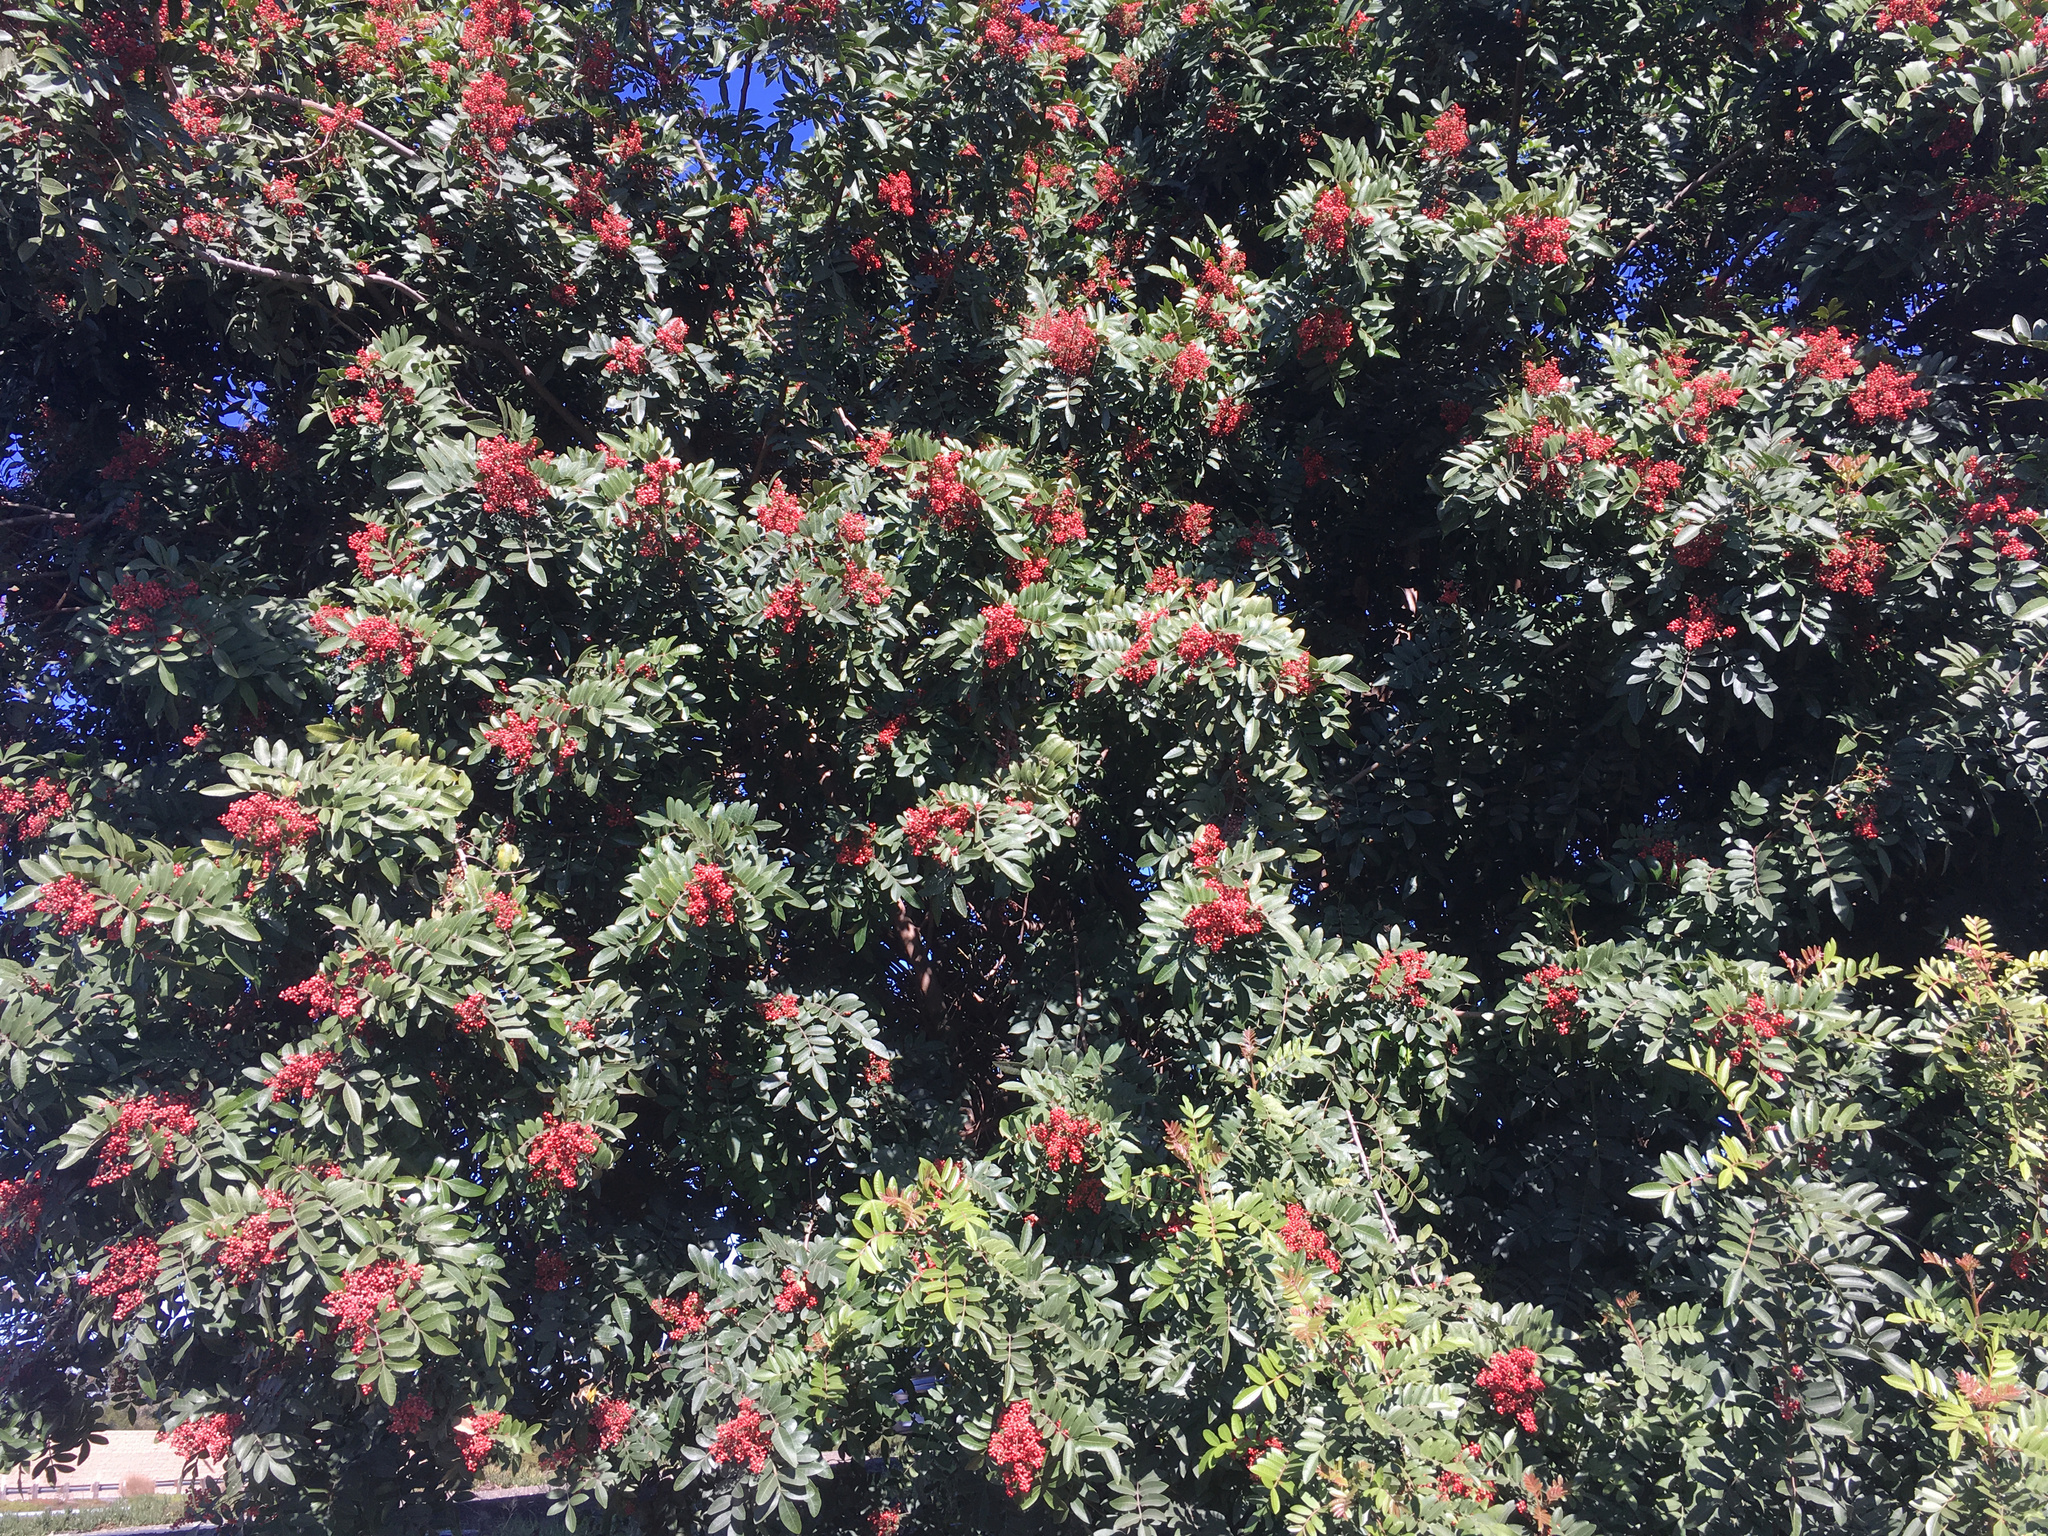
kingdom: Plantae
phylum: Tracheophyta
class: Magnoliopsida
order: Sapindales
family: Anacardiaceae
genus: Schinus
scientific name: Schinus terebinthifolia
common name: Brazilian peppertree
